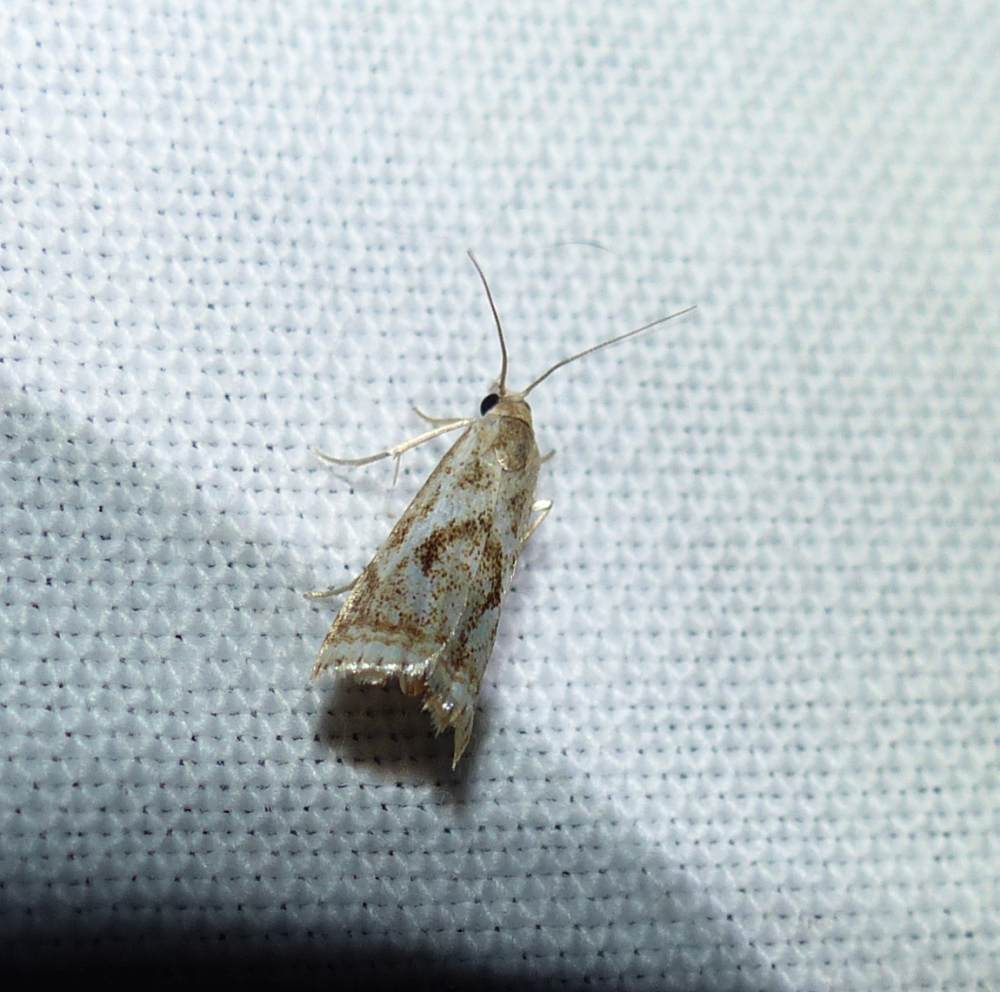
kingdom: Animalia
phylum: Arthropoda
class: Insecta
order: Lepidoptera
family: Crambidae
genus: Microcrambus
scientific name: Microcrambus elegans
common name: Elegant grass-veneer
